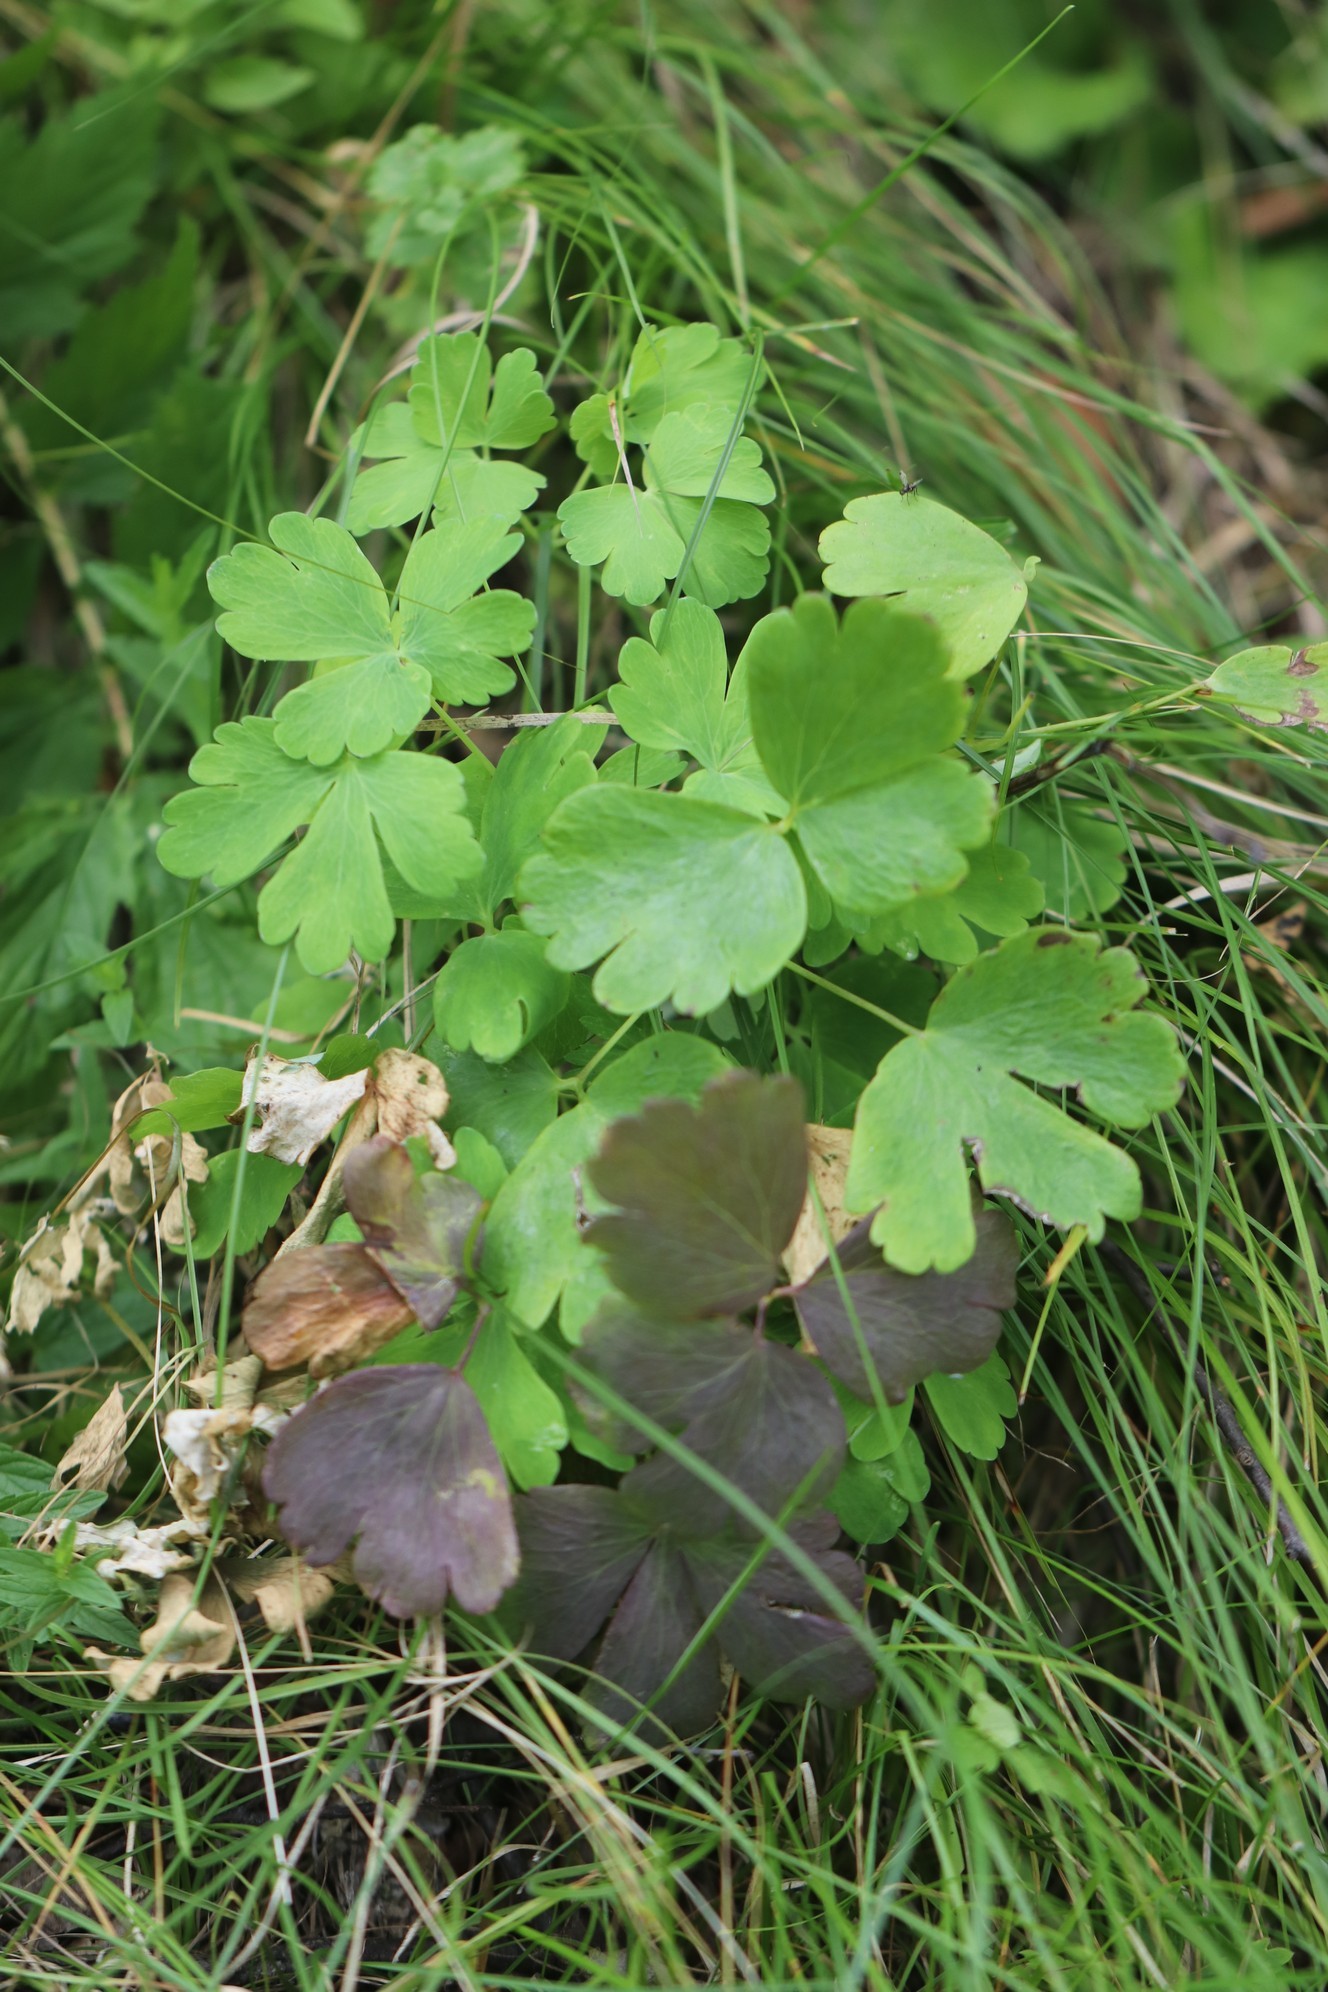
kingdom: Plantae
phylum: Tracheophyta
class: Magnoliopsida
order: Ranunculales
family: Ranunculaceae
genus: Aquilegia
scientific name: Aquilegia sibirica
